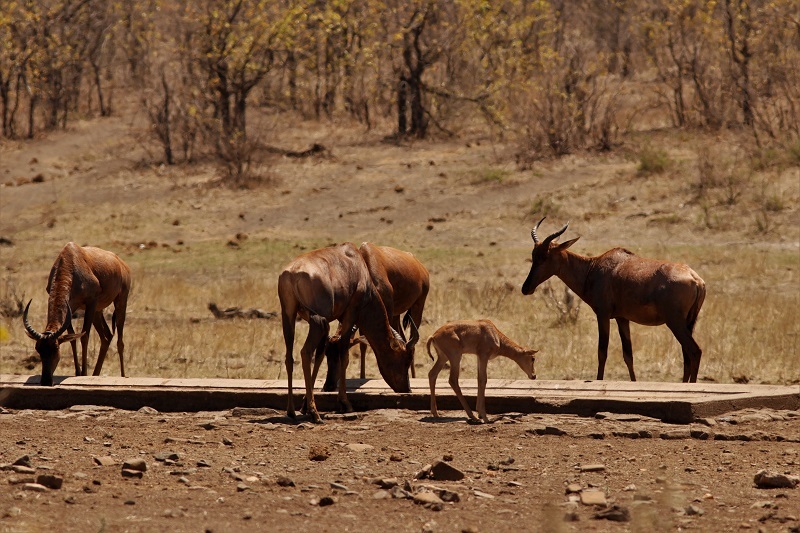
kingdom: Animalia
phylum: Chordata
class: Mammalia
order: Artiodactyla
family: Bovidae
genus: Damaliscus
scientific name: Damaliscus lunatus
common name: Common tsessebe
